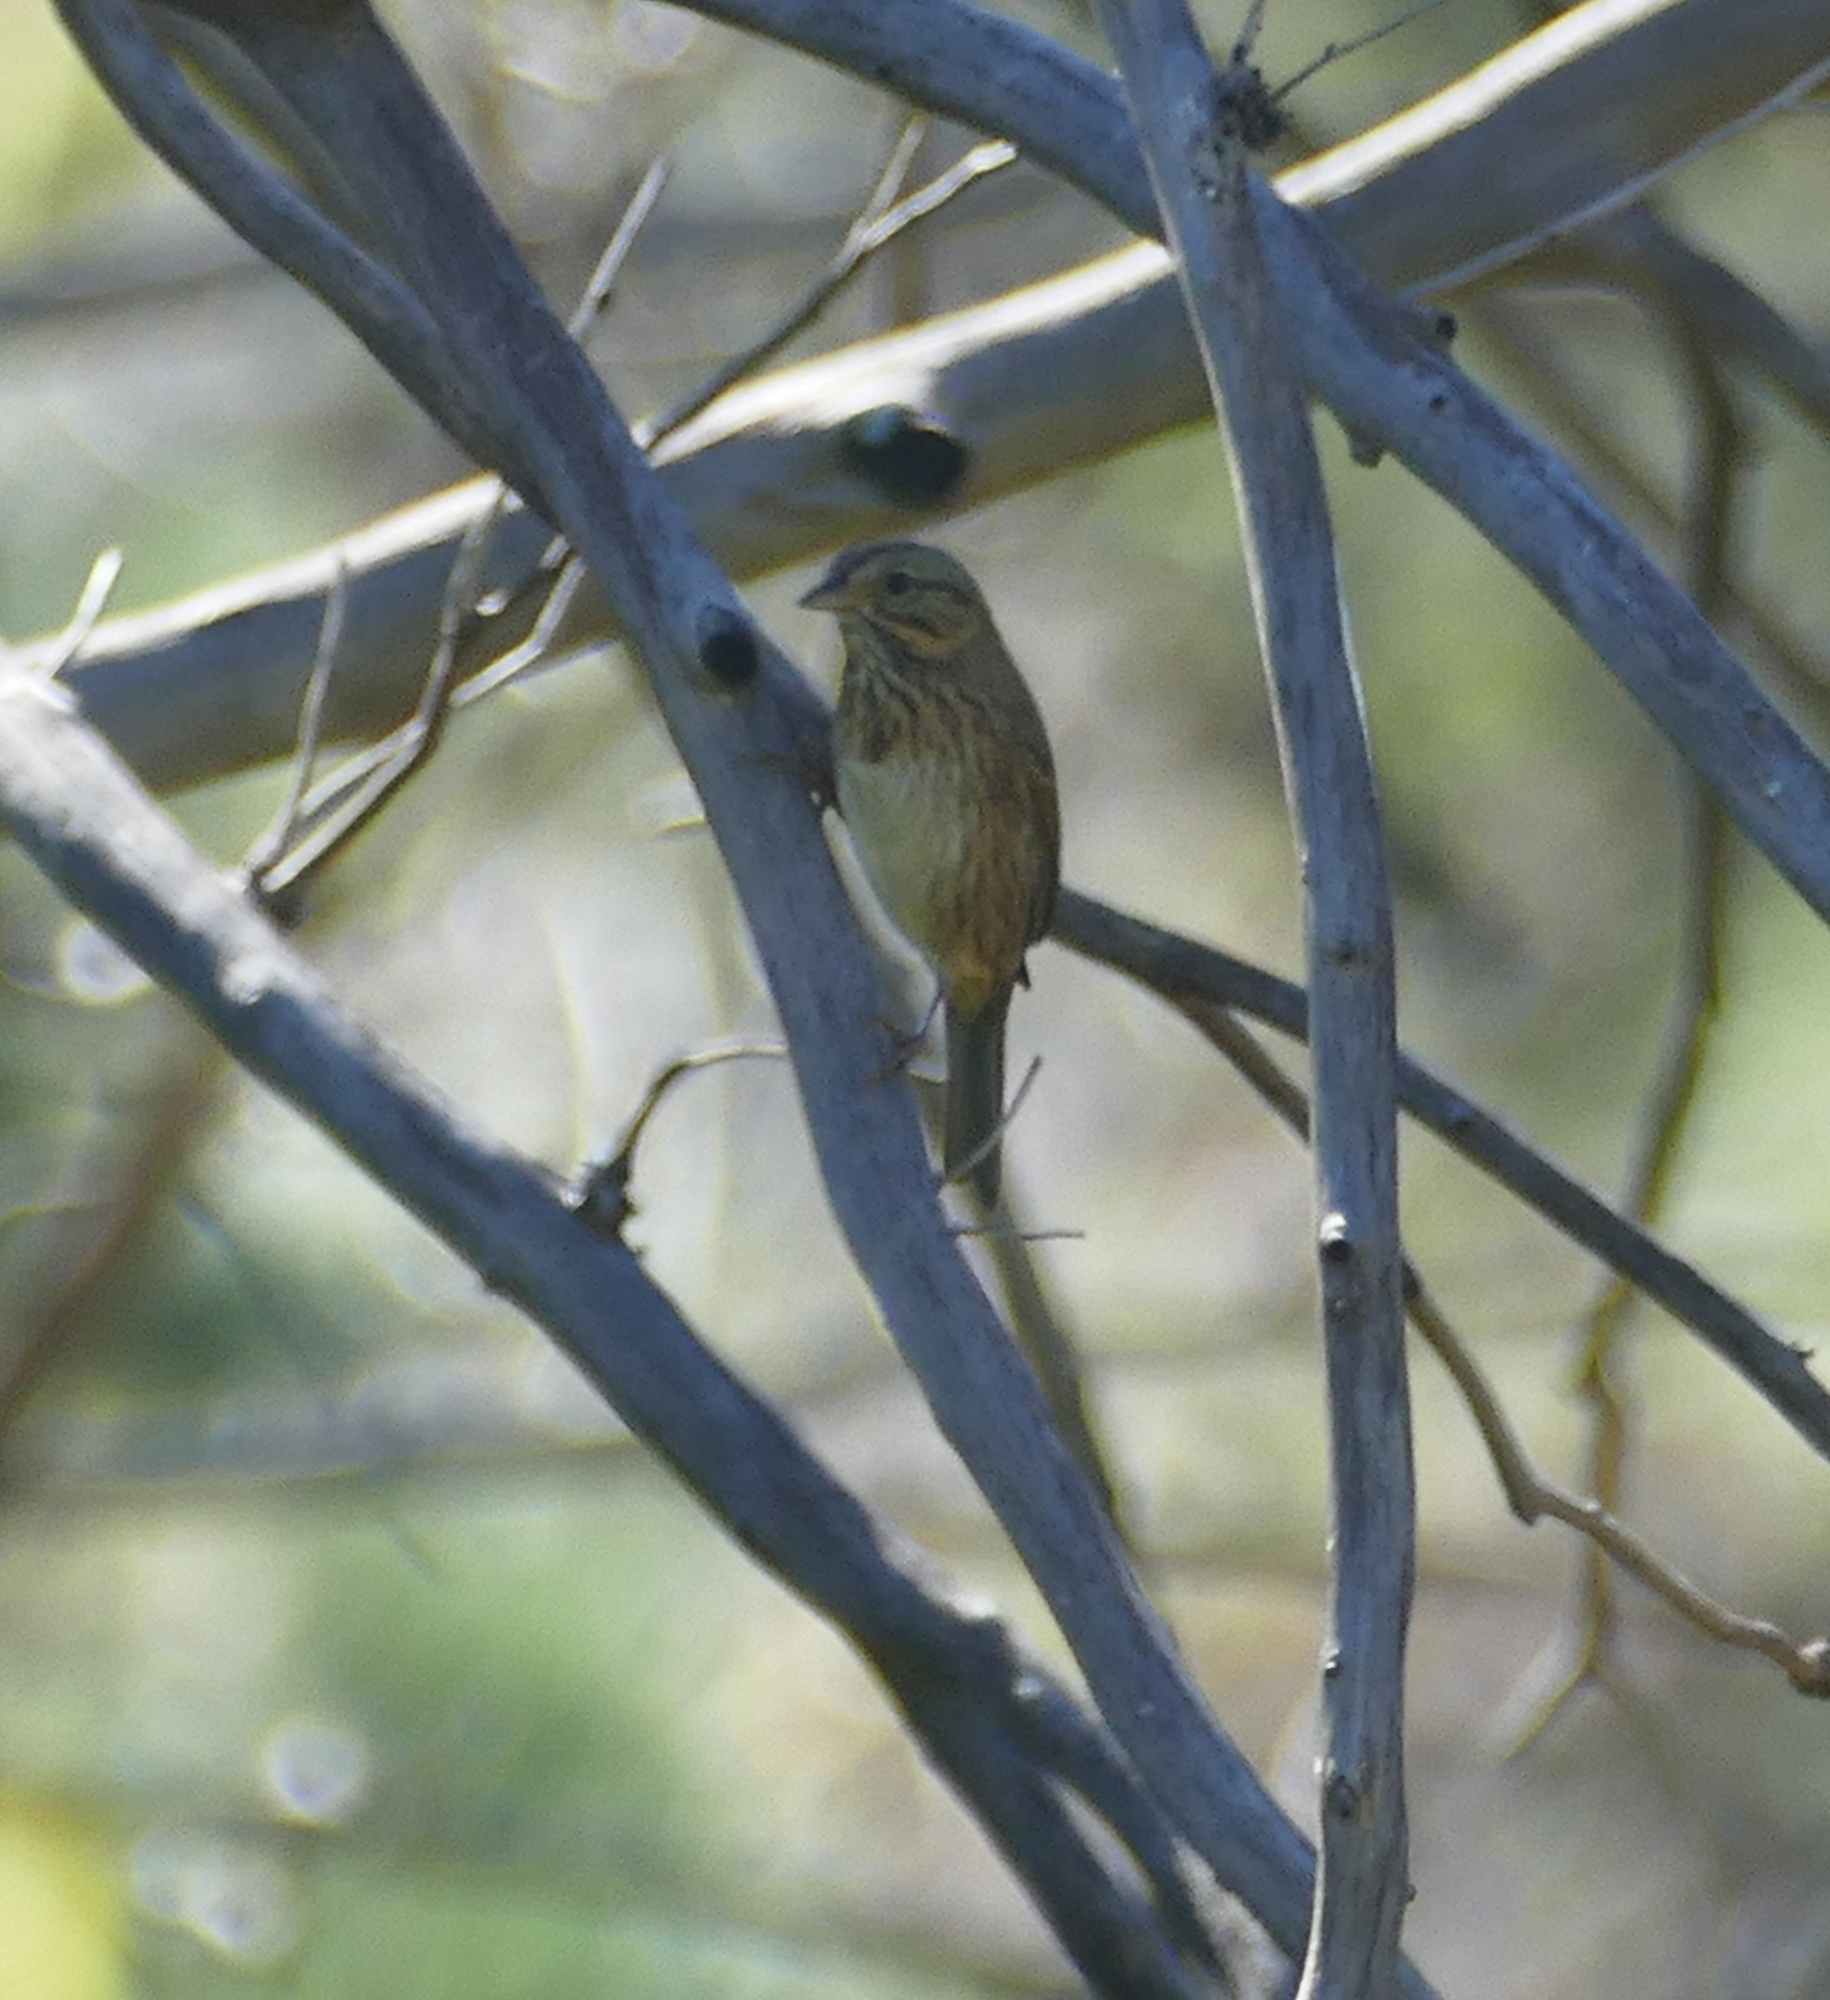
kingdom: Animalia
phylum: Chordata
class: Aves
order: Passeriformes
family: Passerellidae
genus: Melospiza
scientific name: Melospiza lincolnii
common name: Lincoln's sparrow
